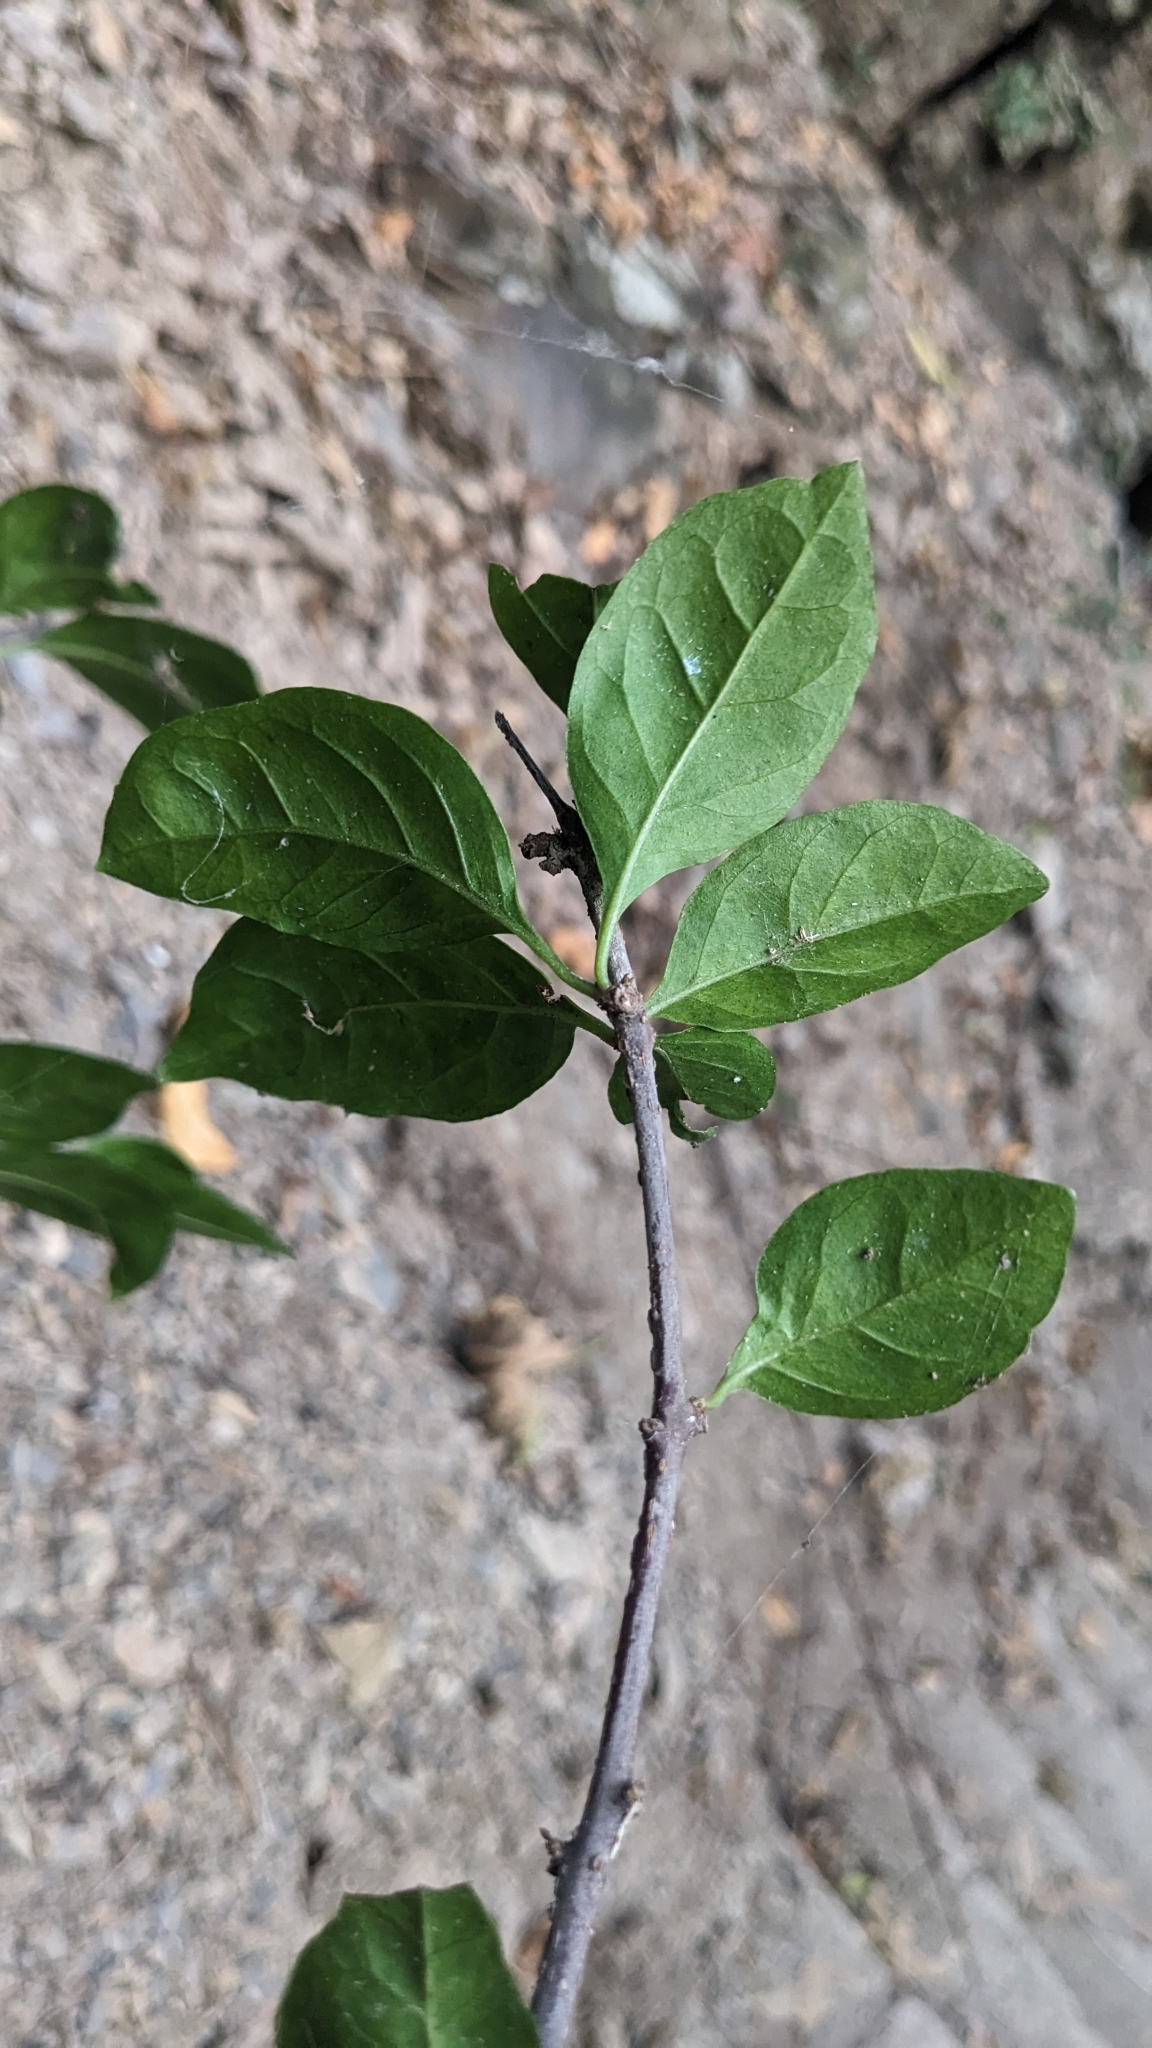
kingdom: Plantae
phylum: Tracheophyta
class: Magnoliopsida
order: Caryophyllales
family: Nyctaginaceae
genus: Pisonia
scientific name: Pisonia aculeata
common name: Cockspur vine
